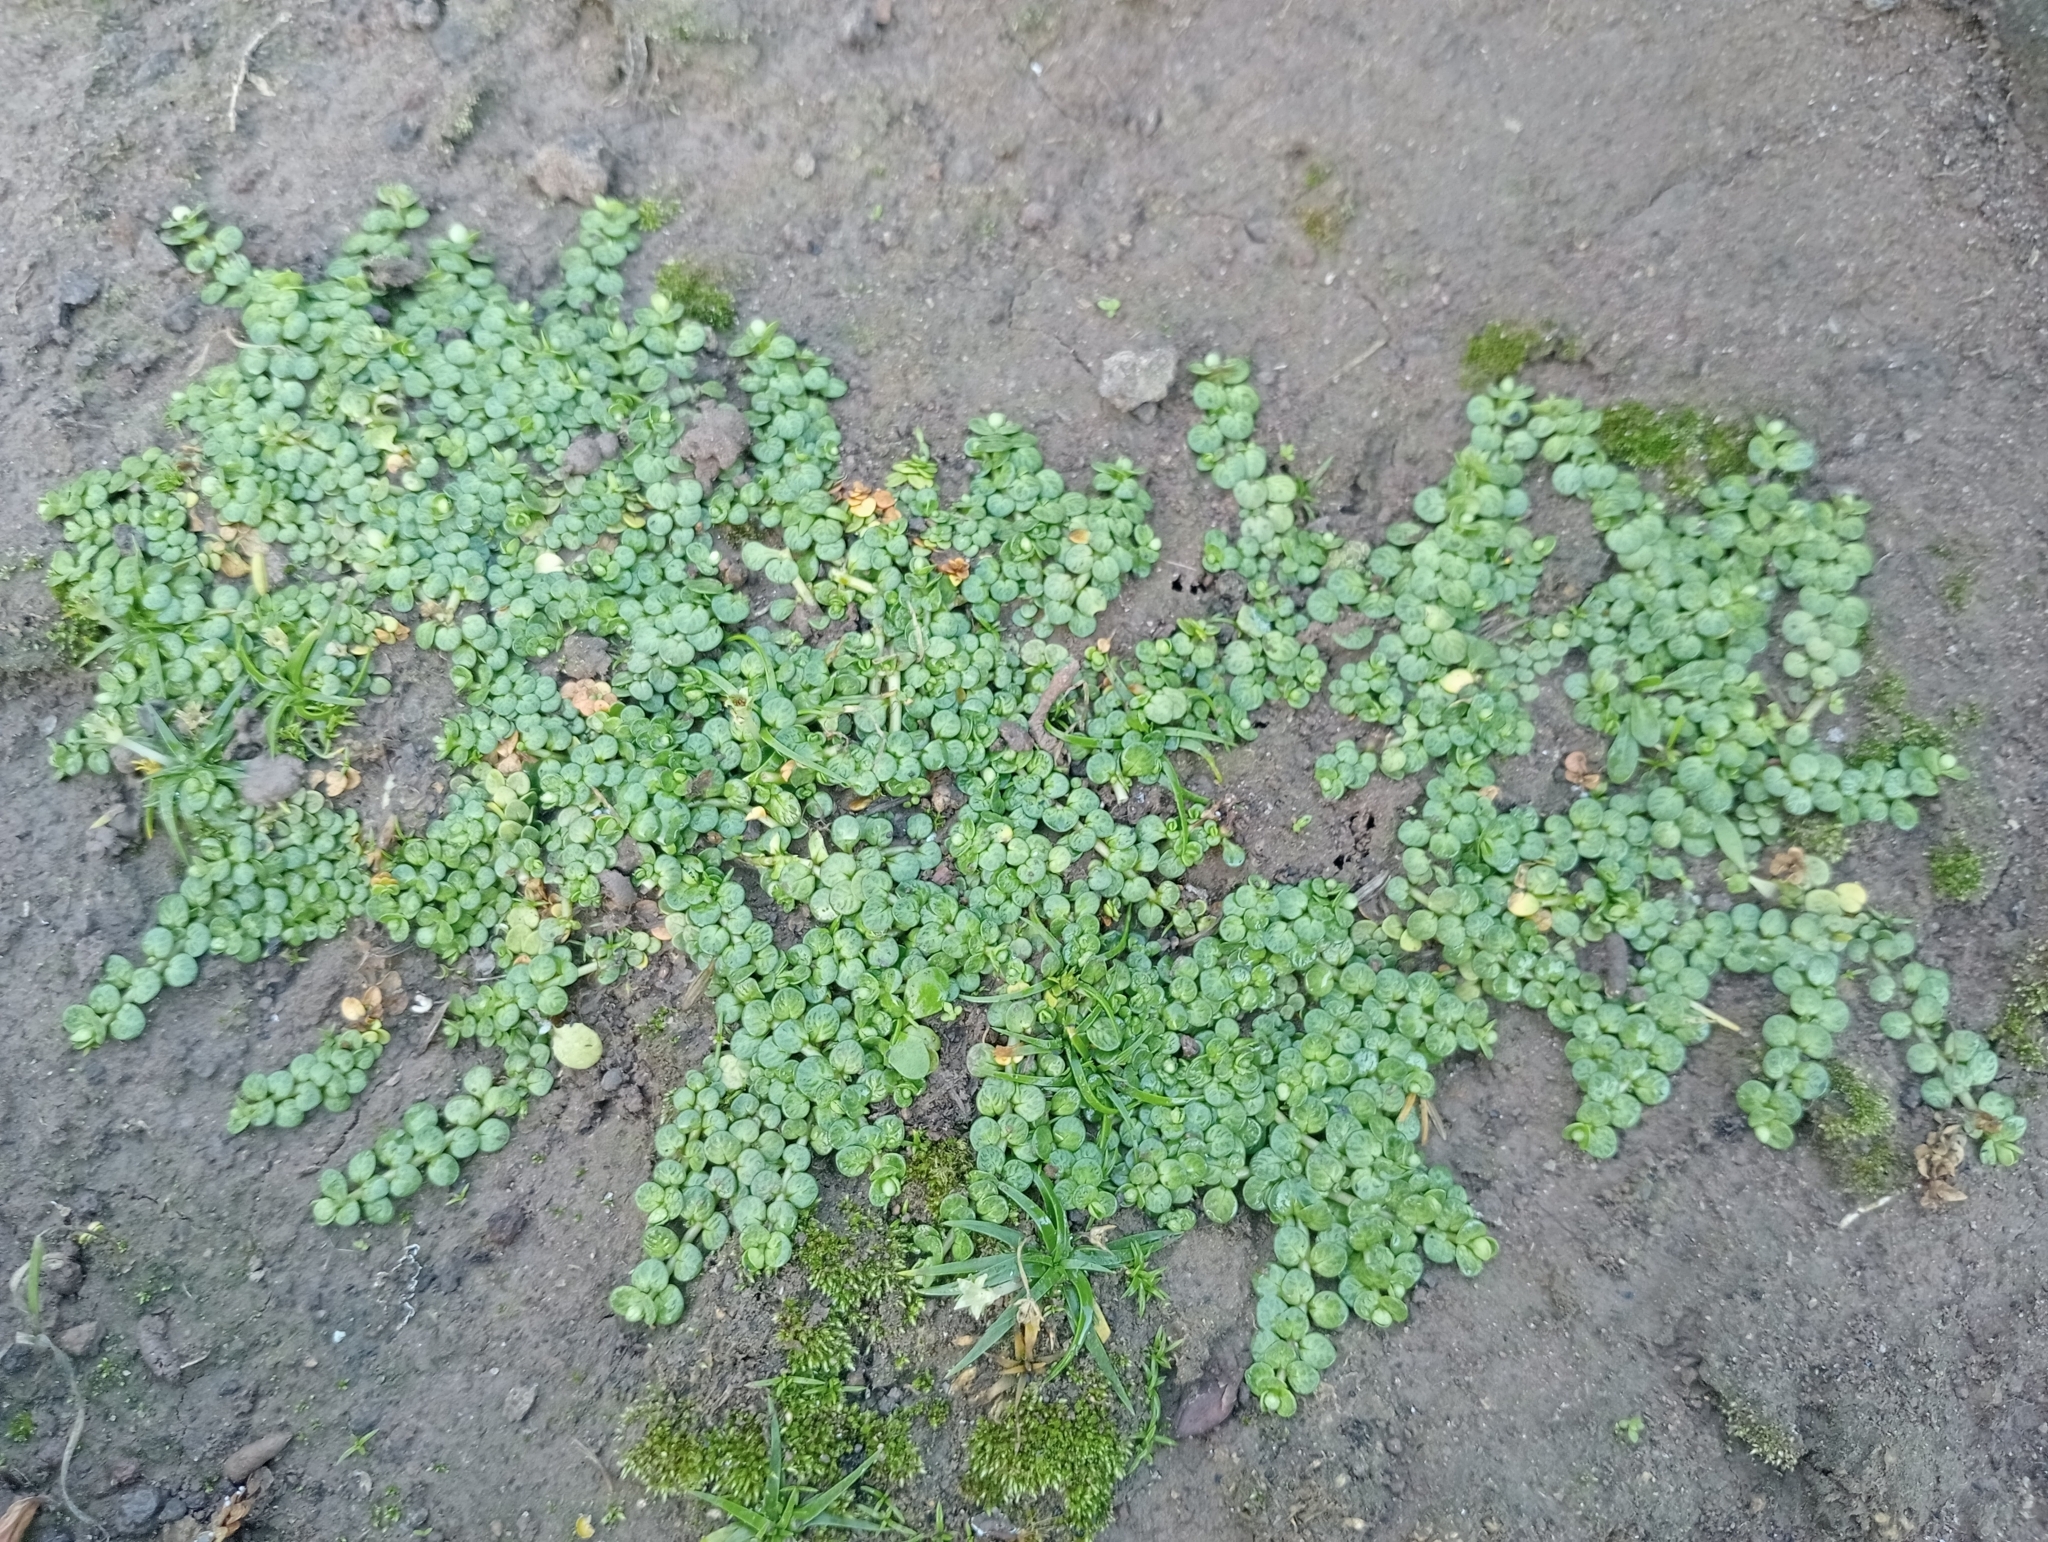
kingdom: Plantae
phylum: Tracheophyta
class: Magnoliopsida
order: Myrtales
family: Onagraceae
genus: Epilobium
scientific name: Epilobium komarovianum
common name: Bronzy willowherb
